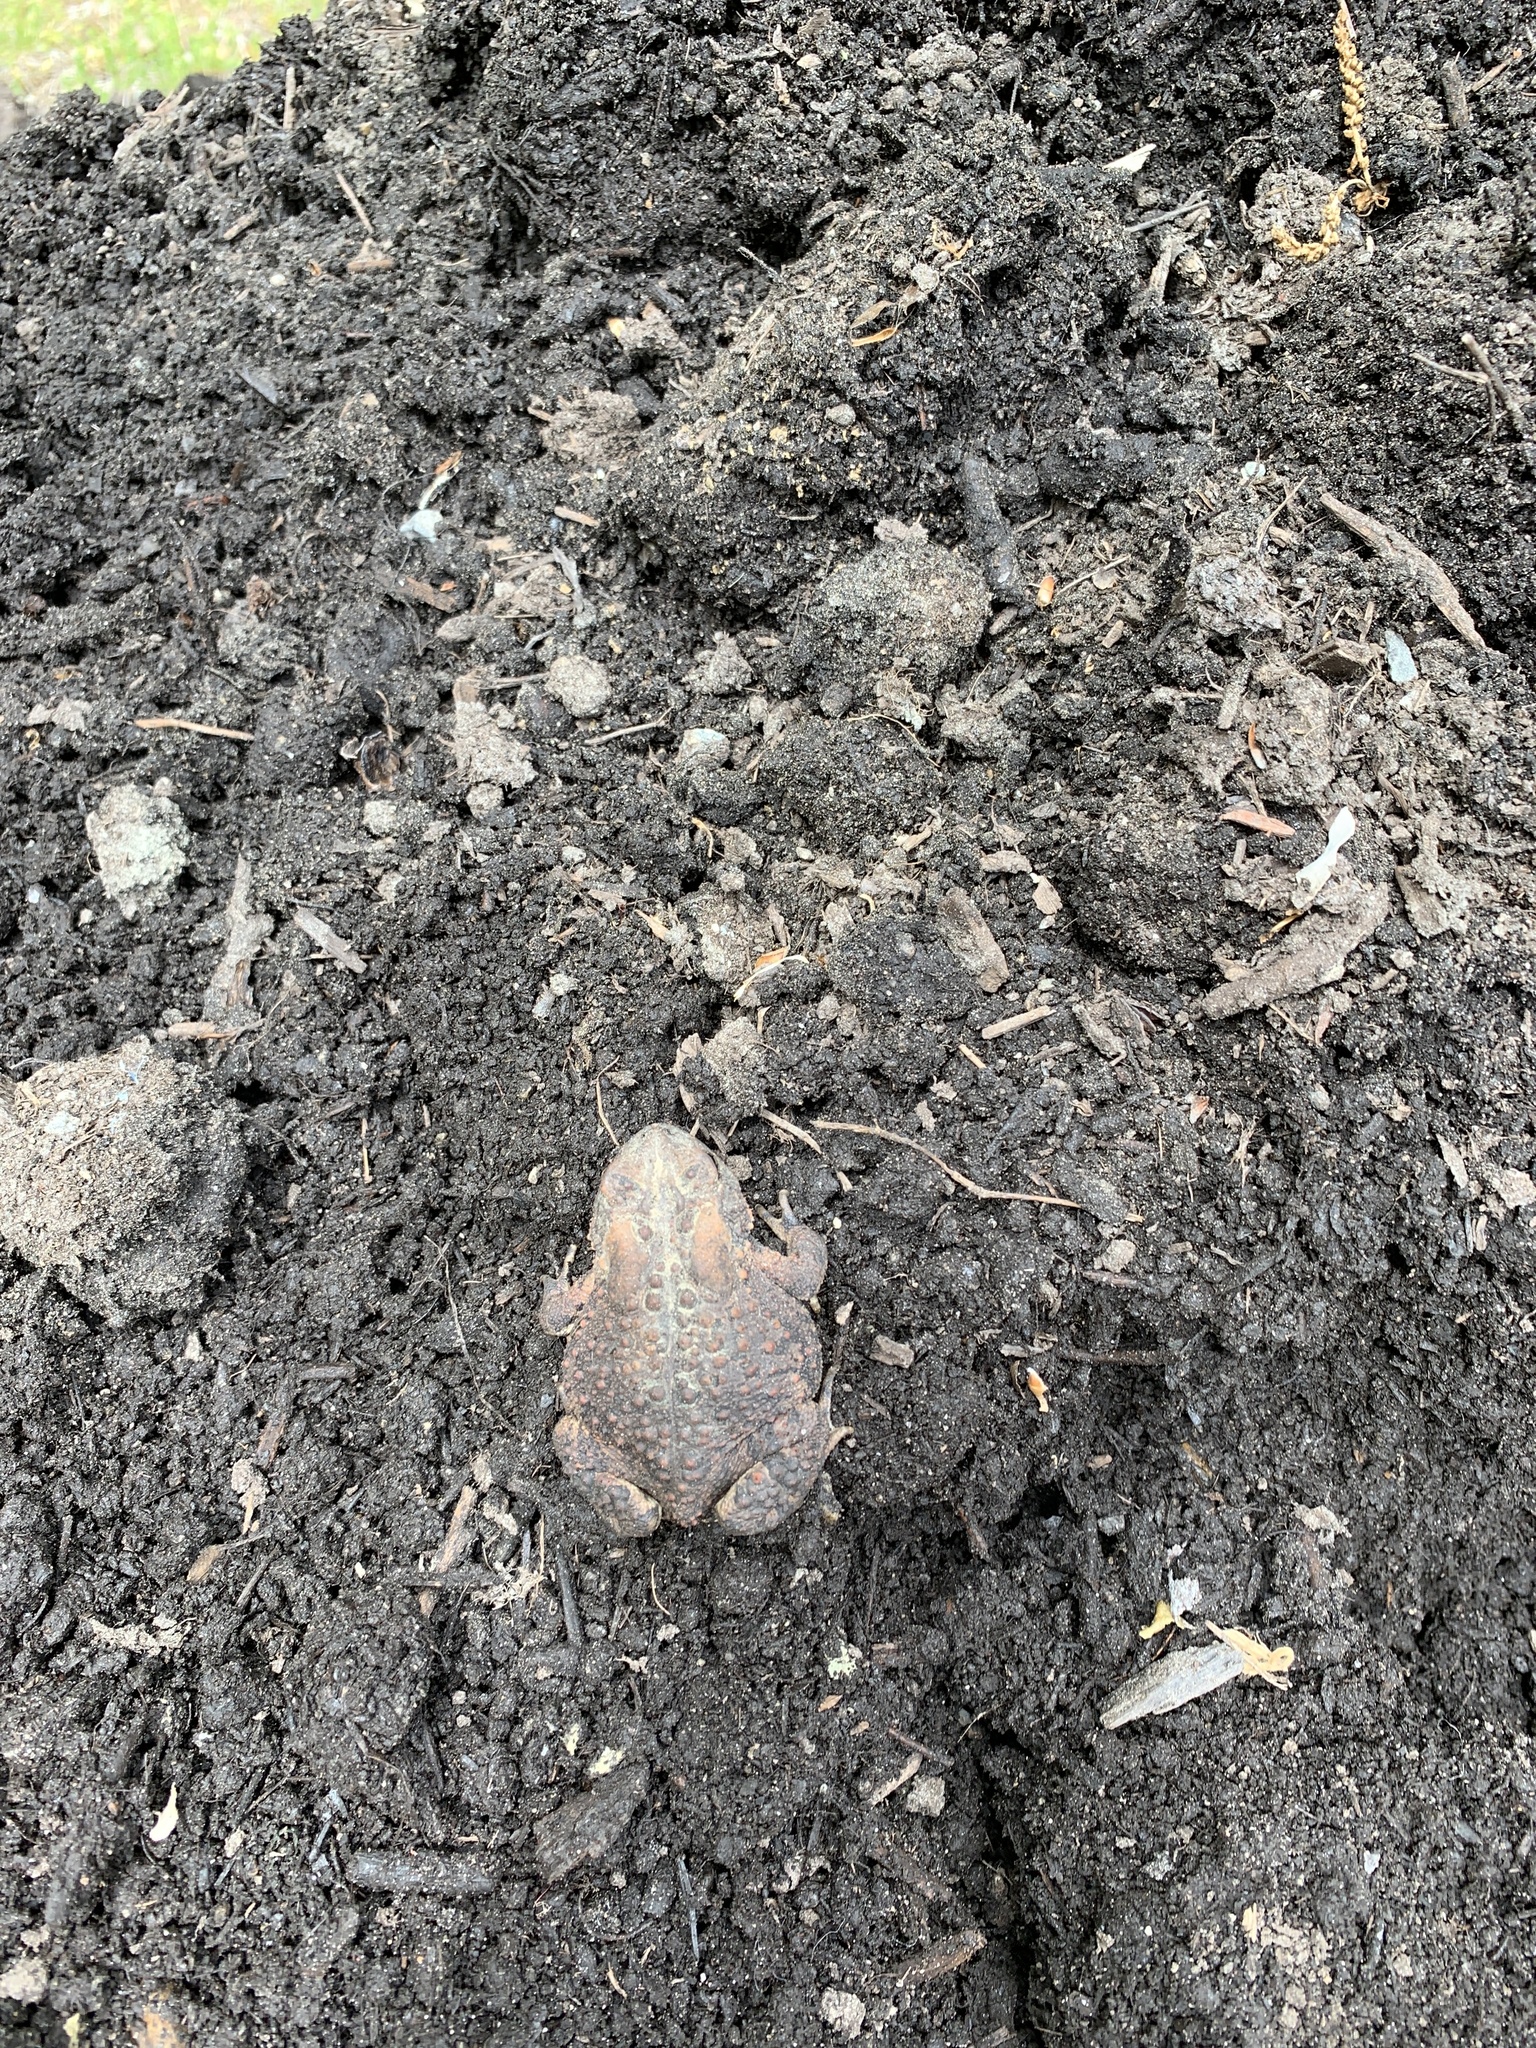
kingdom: Animalia
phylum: Chordata
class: Amphibia
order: Anura
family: Bufonidae
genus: Anaxyrus
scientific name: Anaxyrus americanus
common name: American toad
